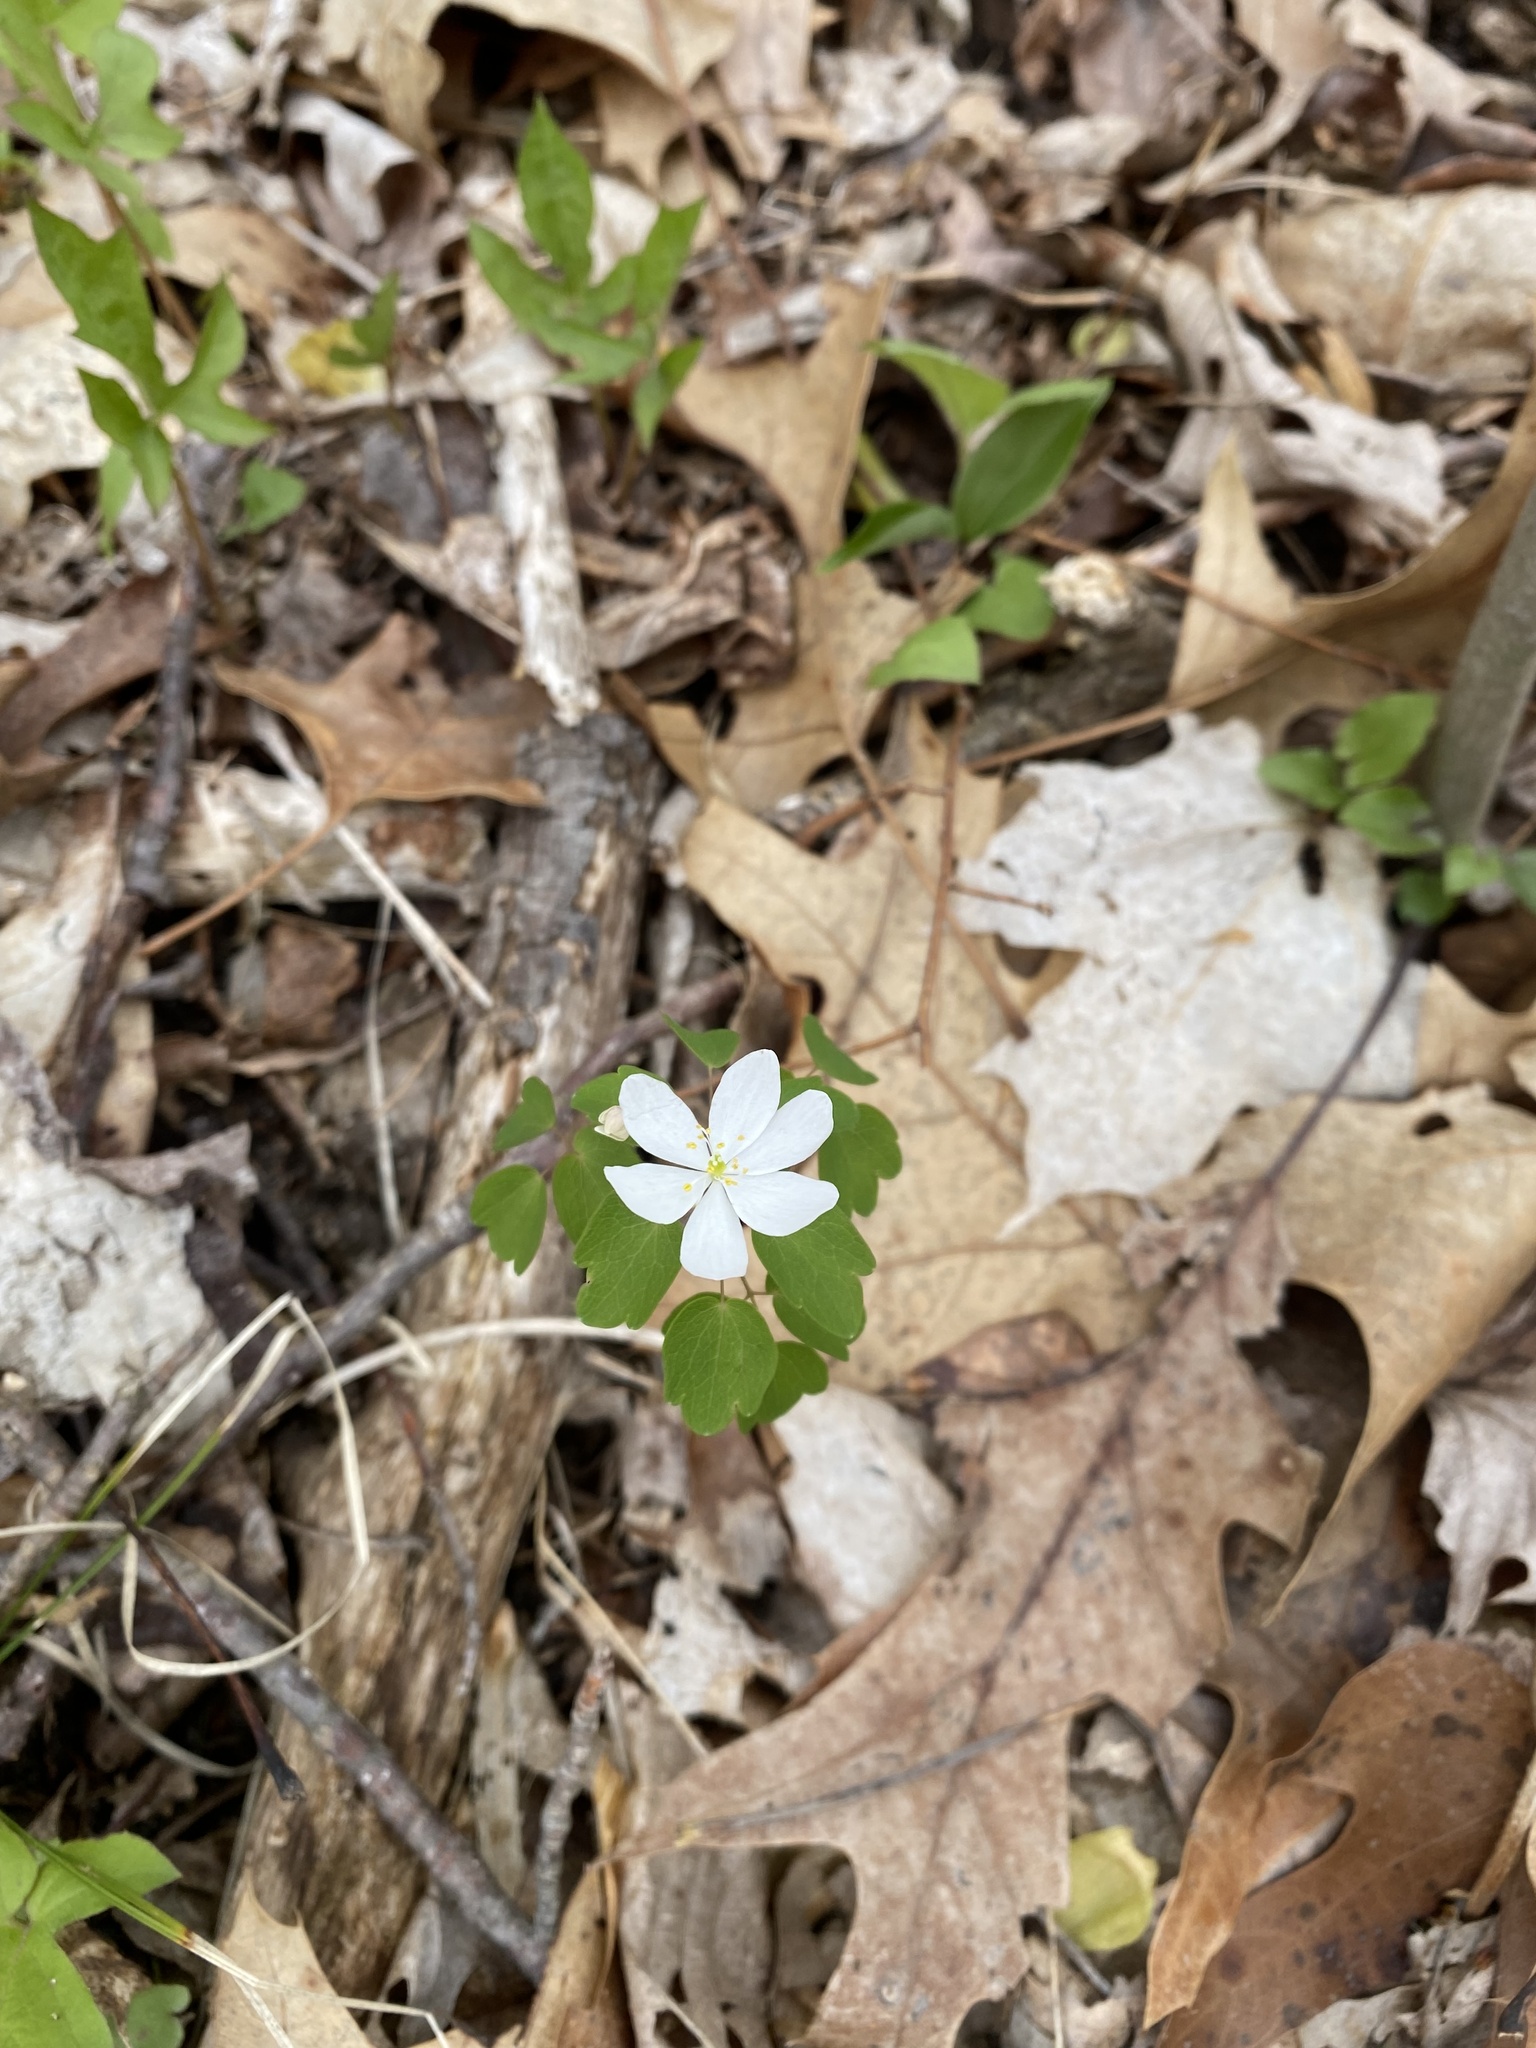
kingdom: Plantae
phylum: Tracheophyta
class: Magnoliopsida
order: Ranunculales
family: Ranunculaceae
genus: Thalictrum
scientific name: Thalictrum thalictroides
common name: Rue-anemone
